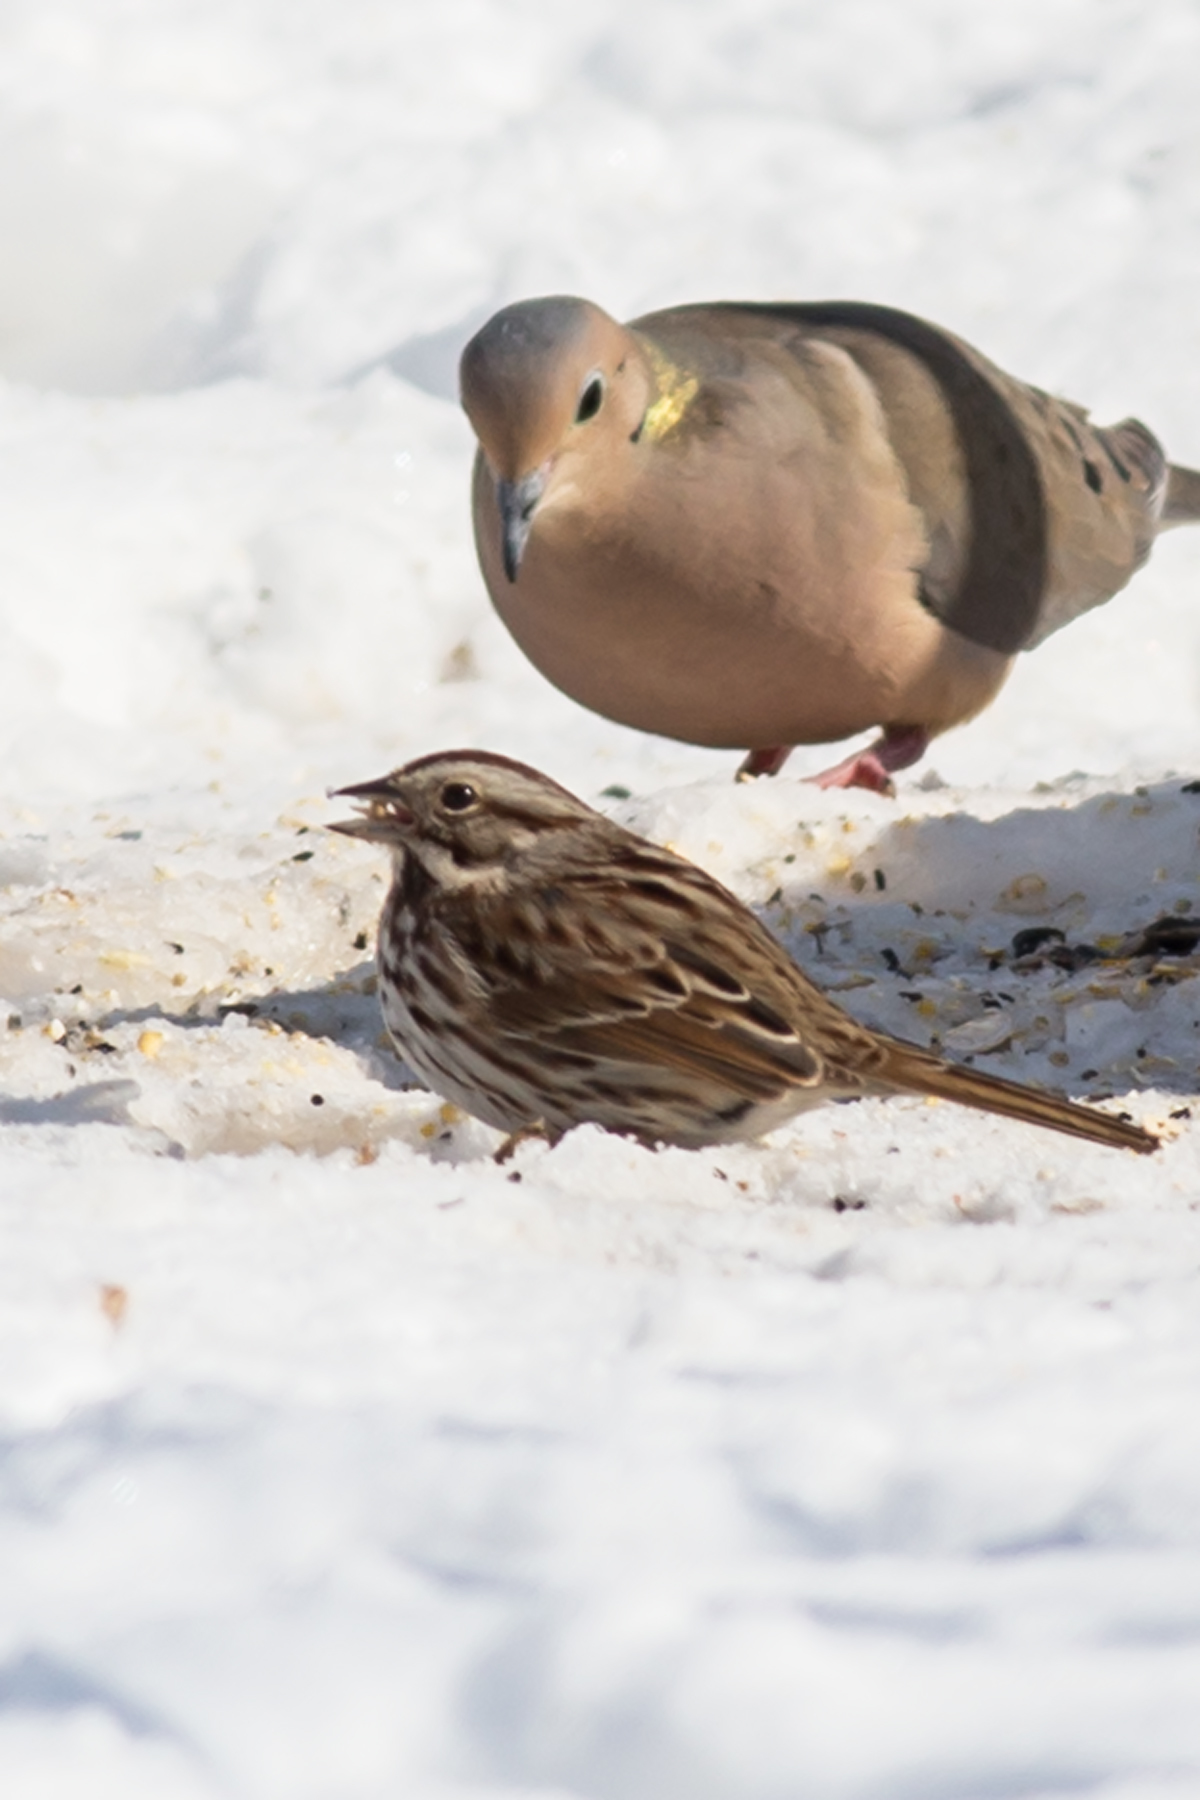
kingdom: Animalia
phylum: Chordata
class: Aves
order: Passeriformes
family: Passerellidae
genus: Melospiza
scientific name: Melospiza melodia
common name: Song sparrow
